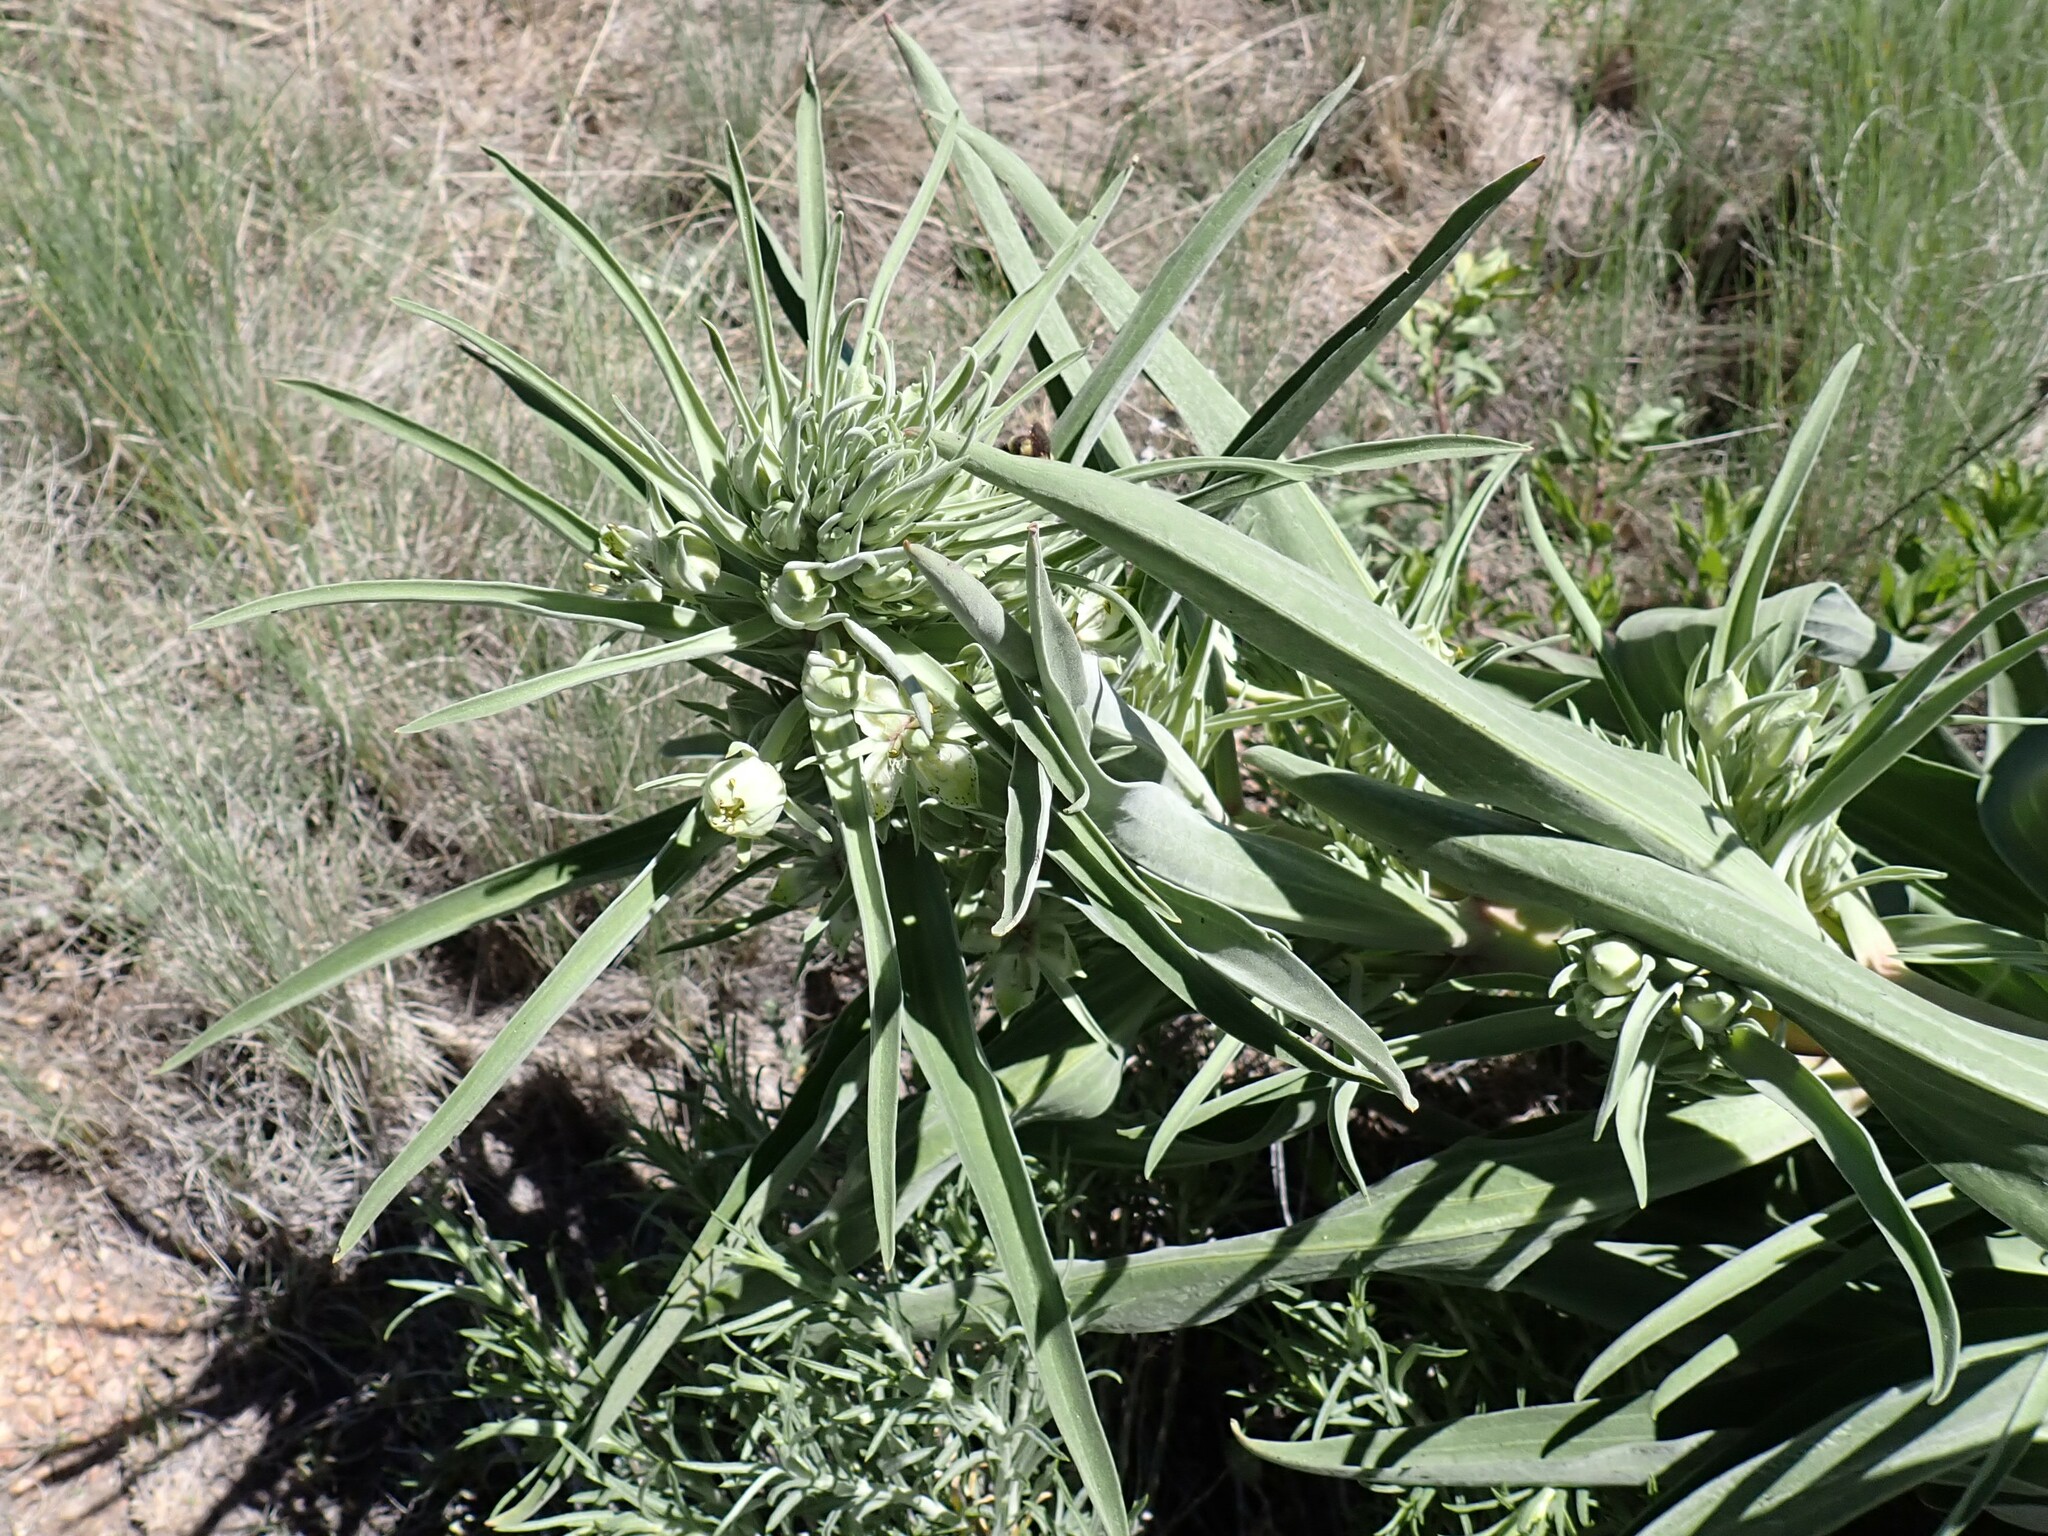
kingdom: Plantae
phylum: Tracheophyta
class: Magnoliopsida
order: Gentianales
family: Gentianaceae
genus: Frasera
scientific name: Frasera speciosa
